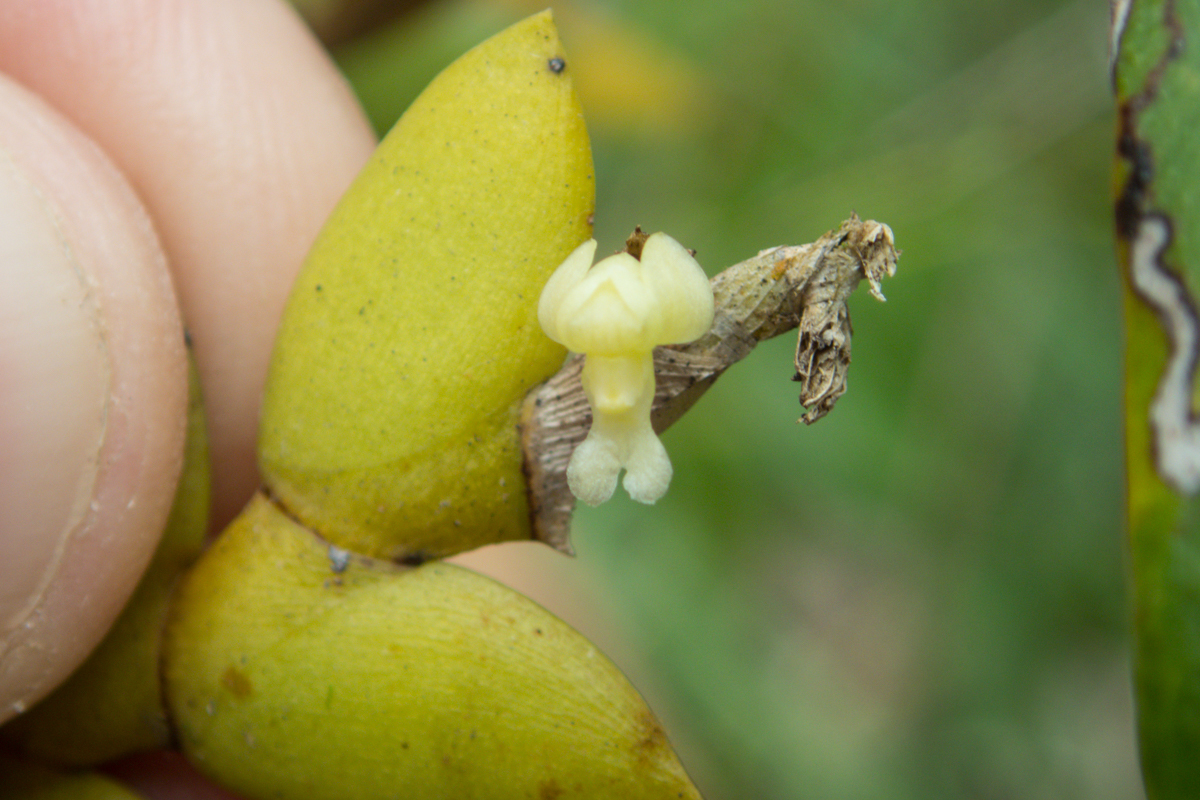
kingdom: Plantae
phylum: Tracheophyta
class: Liliopsida
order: Asparagales
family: Orchidaceae
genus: Dendrobium
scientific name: Dendrobium aloifolium
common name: Aloe-like dendrobium
